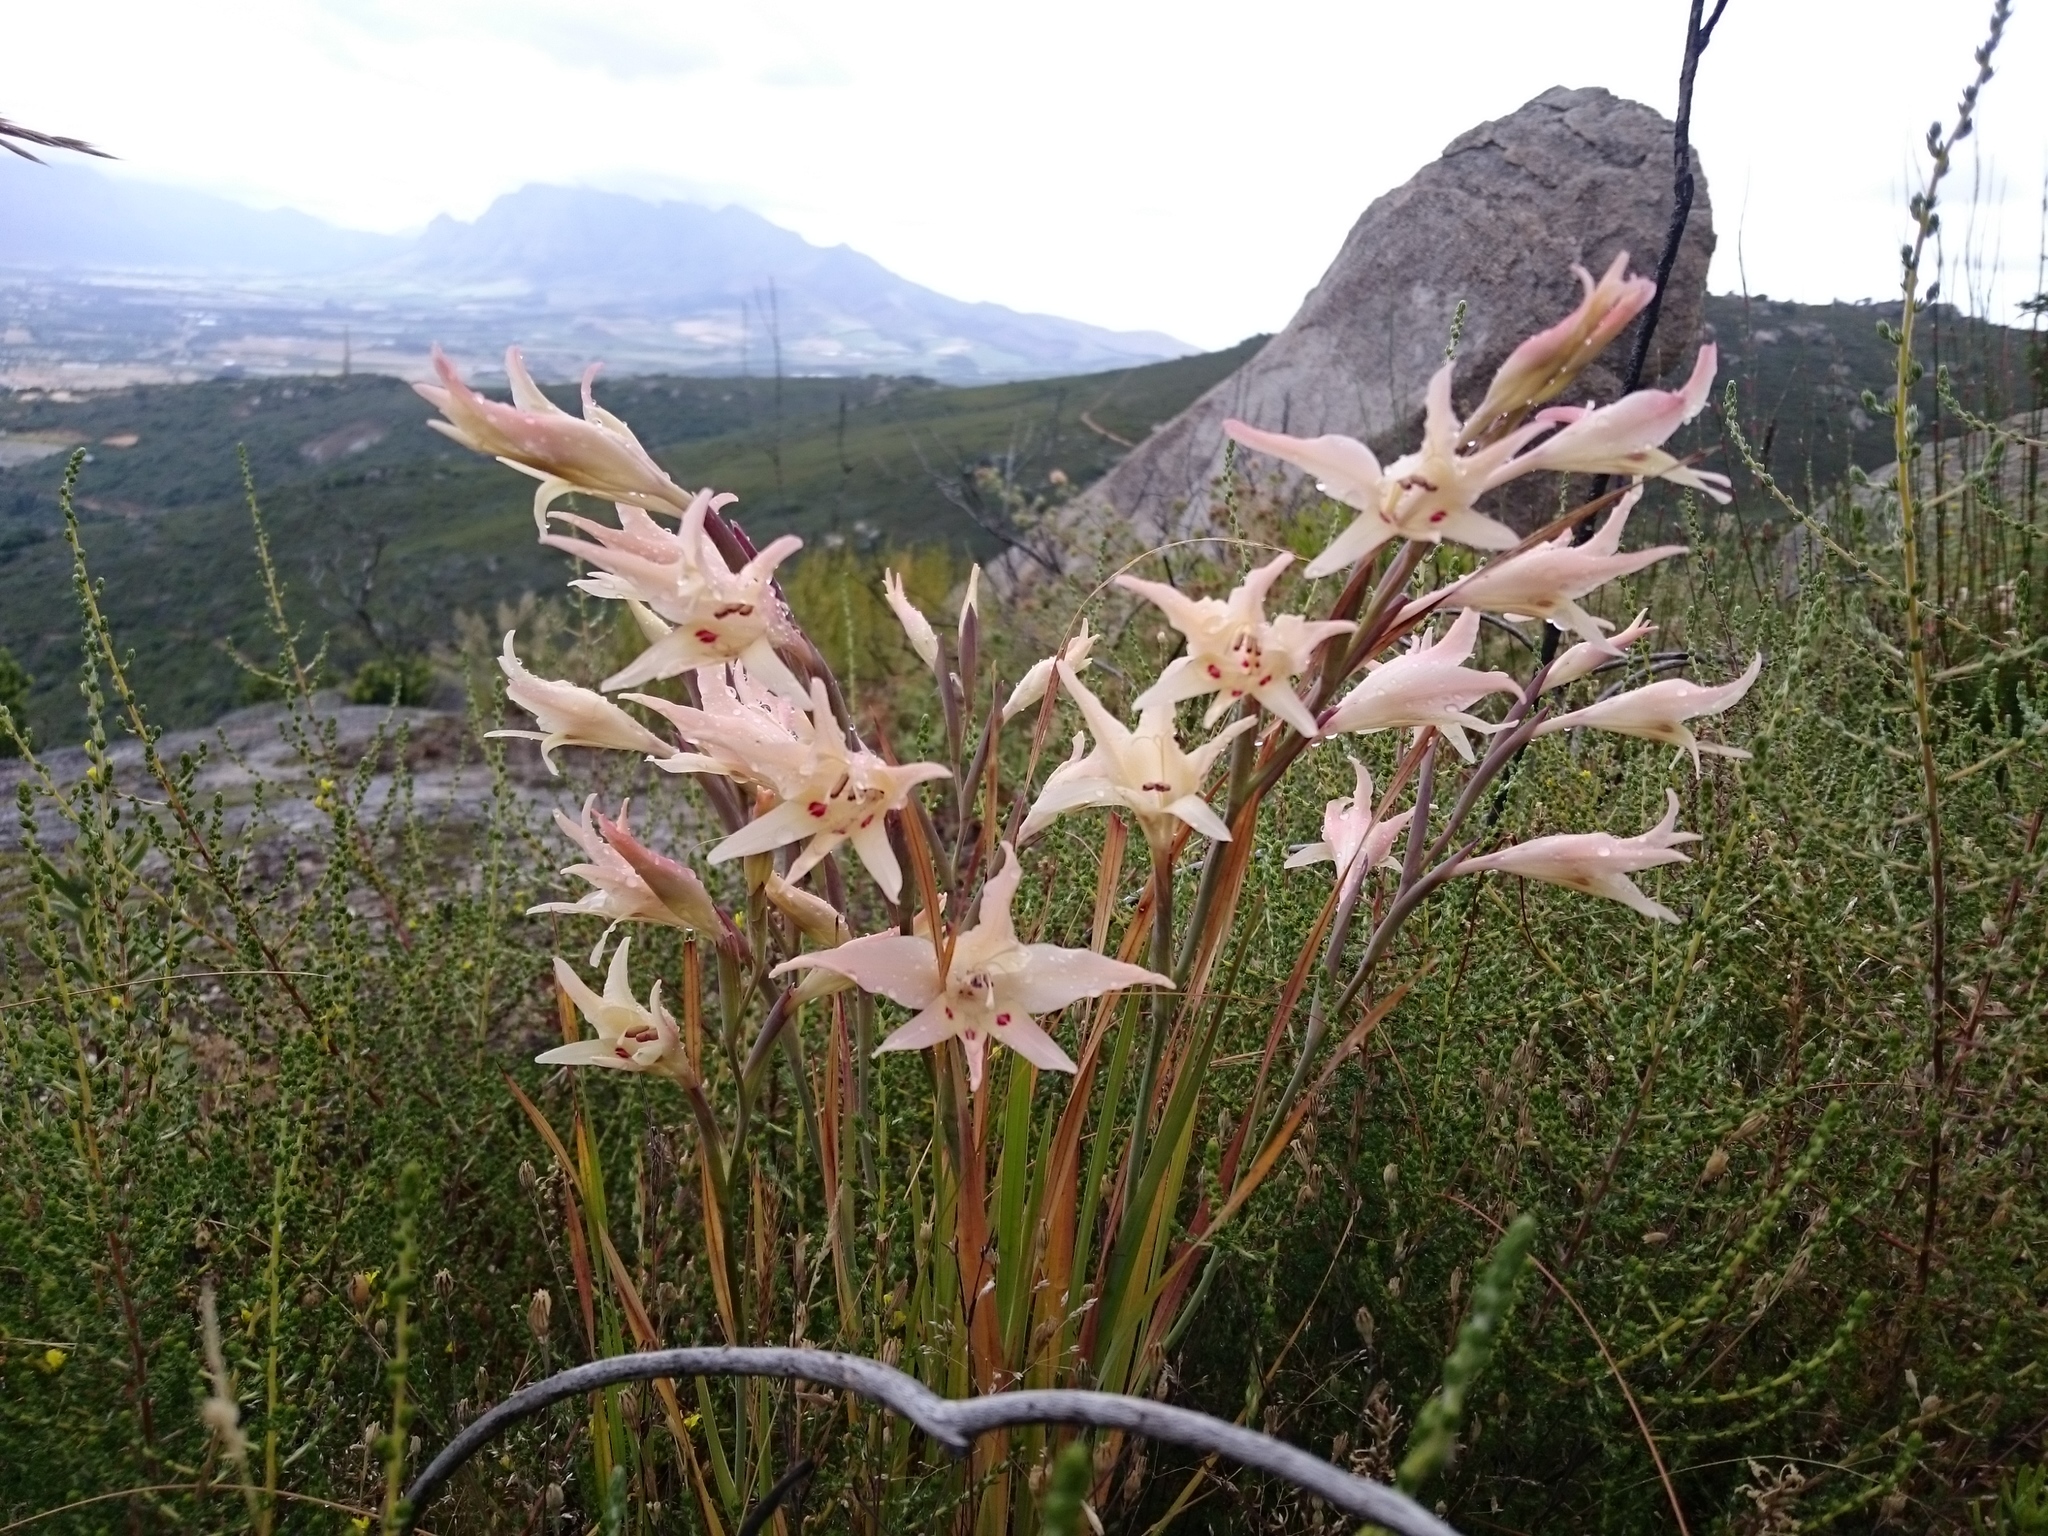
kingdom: Plantae
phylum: Tracheophyta
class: Liliopsida
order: Asparagales
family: Iridaceae
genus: Gladiolus
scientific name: Gladiolus carneus
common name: Painted-lady
